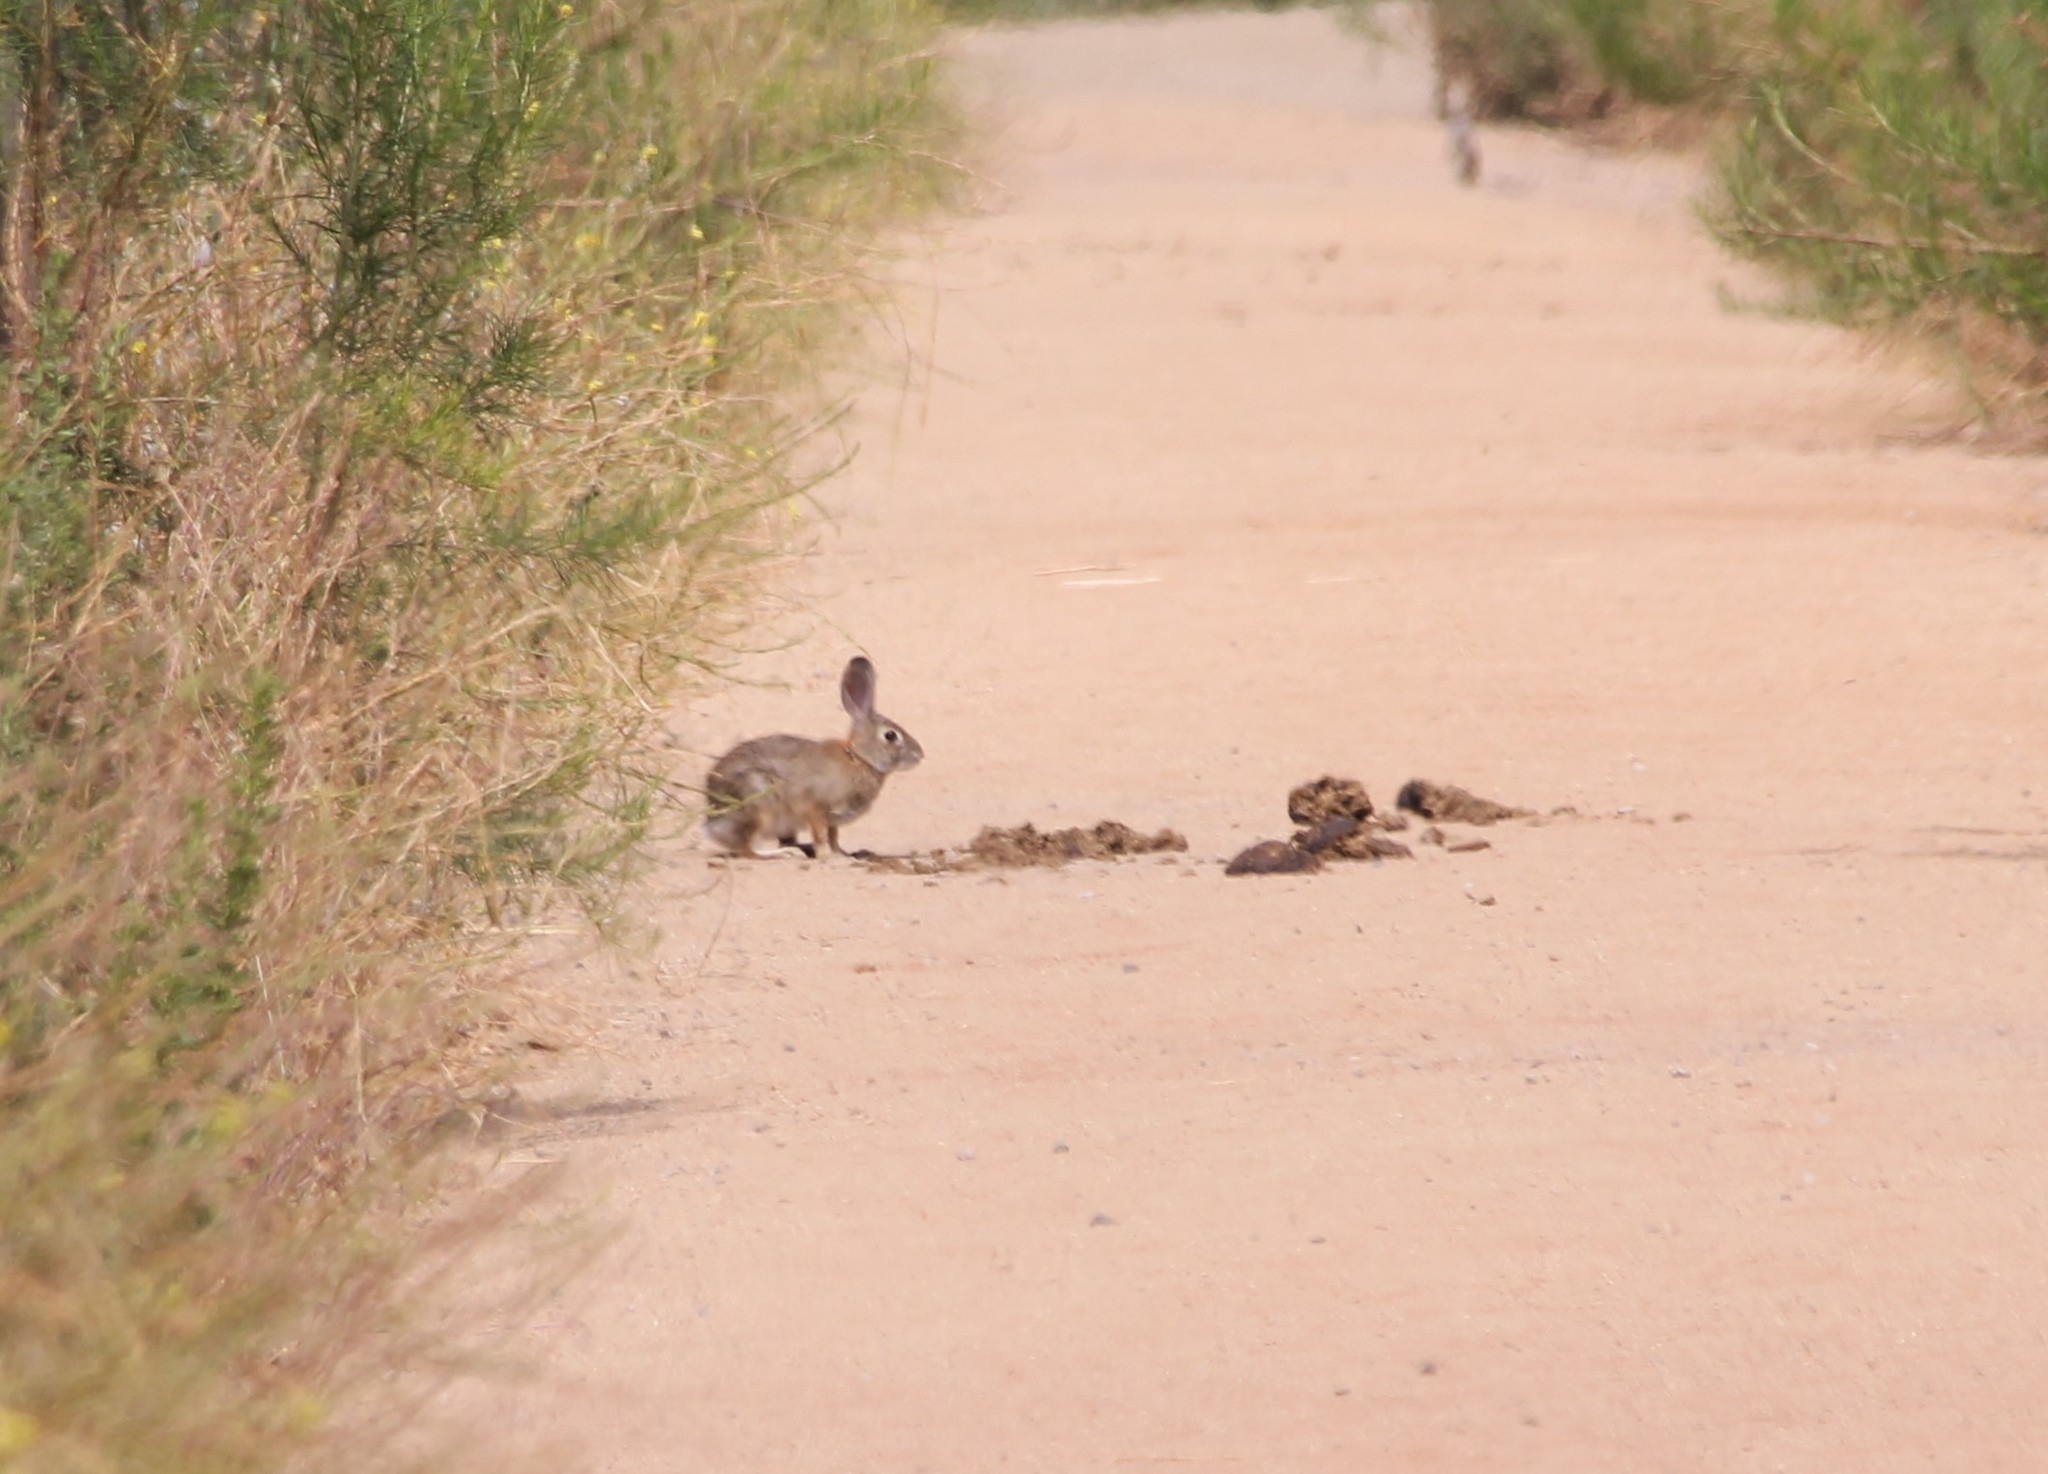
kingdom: Animalia
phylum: Chordata
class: Mammalia
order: Lagomorpha
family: Leporidae
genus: Sylvilagus
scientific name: Sylvilagus audubonii
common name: Desert cottontail
